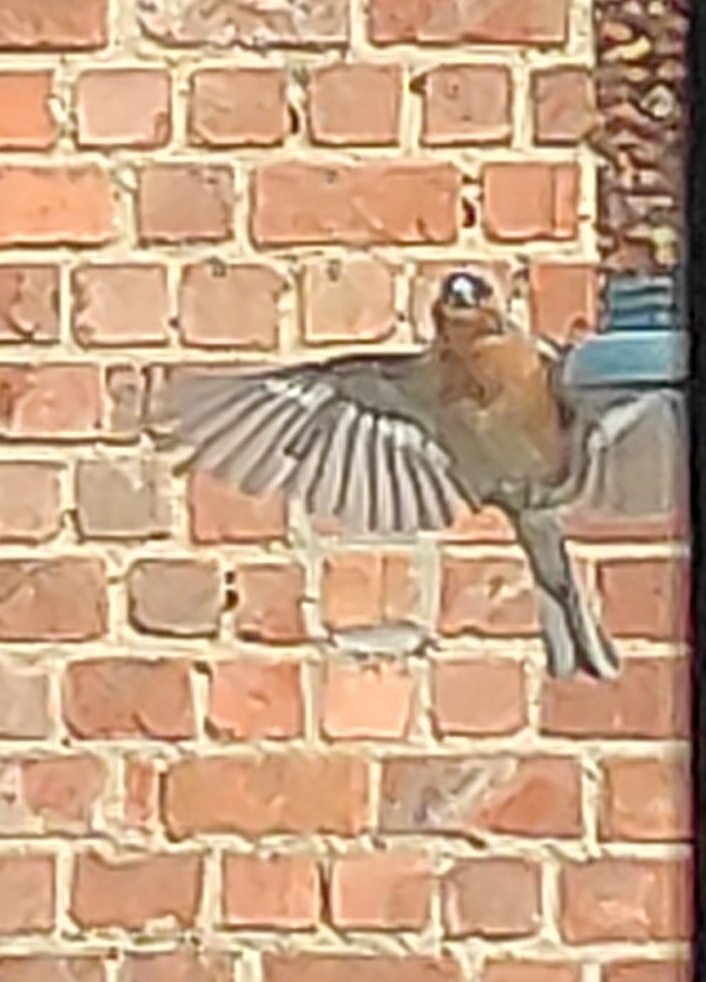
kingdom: Animalia
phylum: Chordata
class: Aves
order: Passeriformes
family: Fringillidae
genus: Fringilla
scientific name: Fringilla coelebs
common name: Common chaffinch
